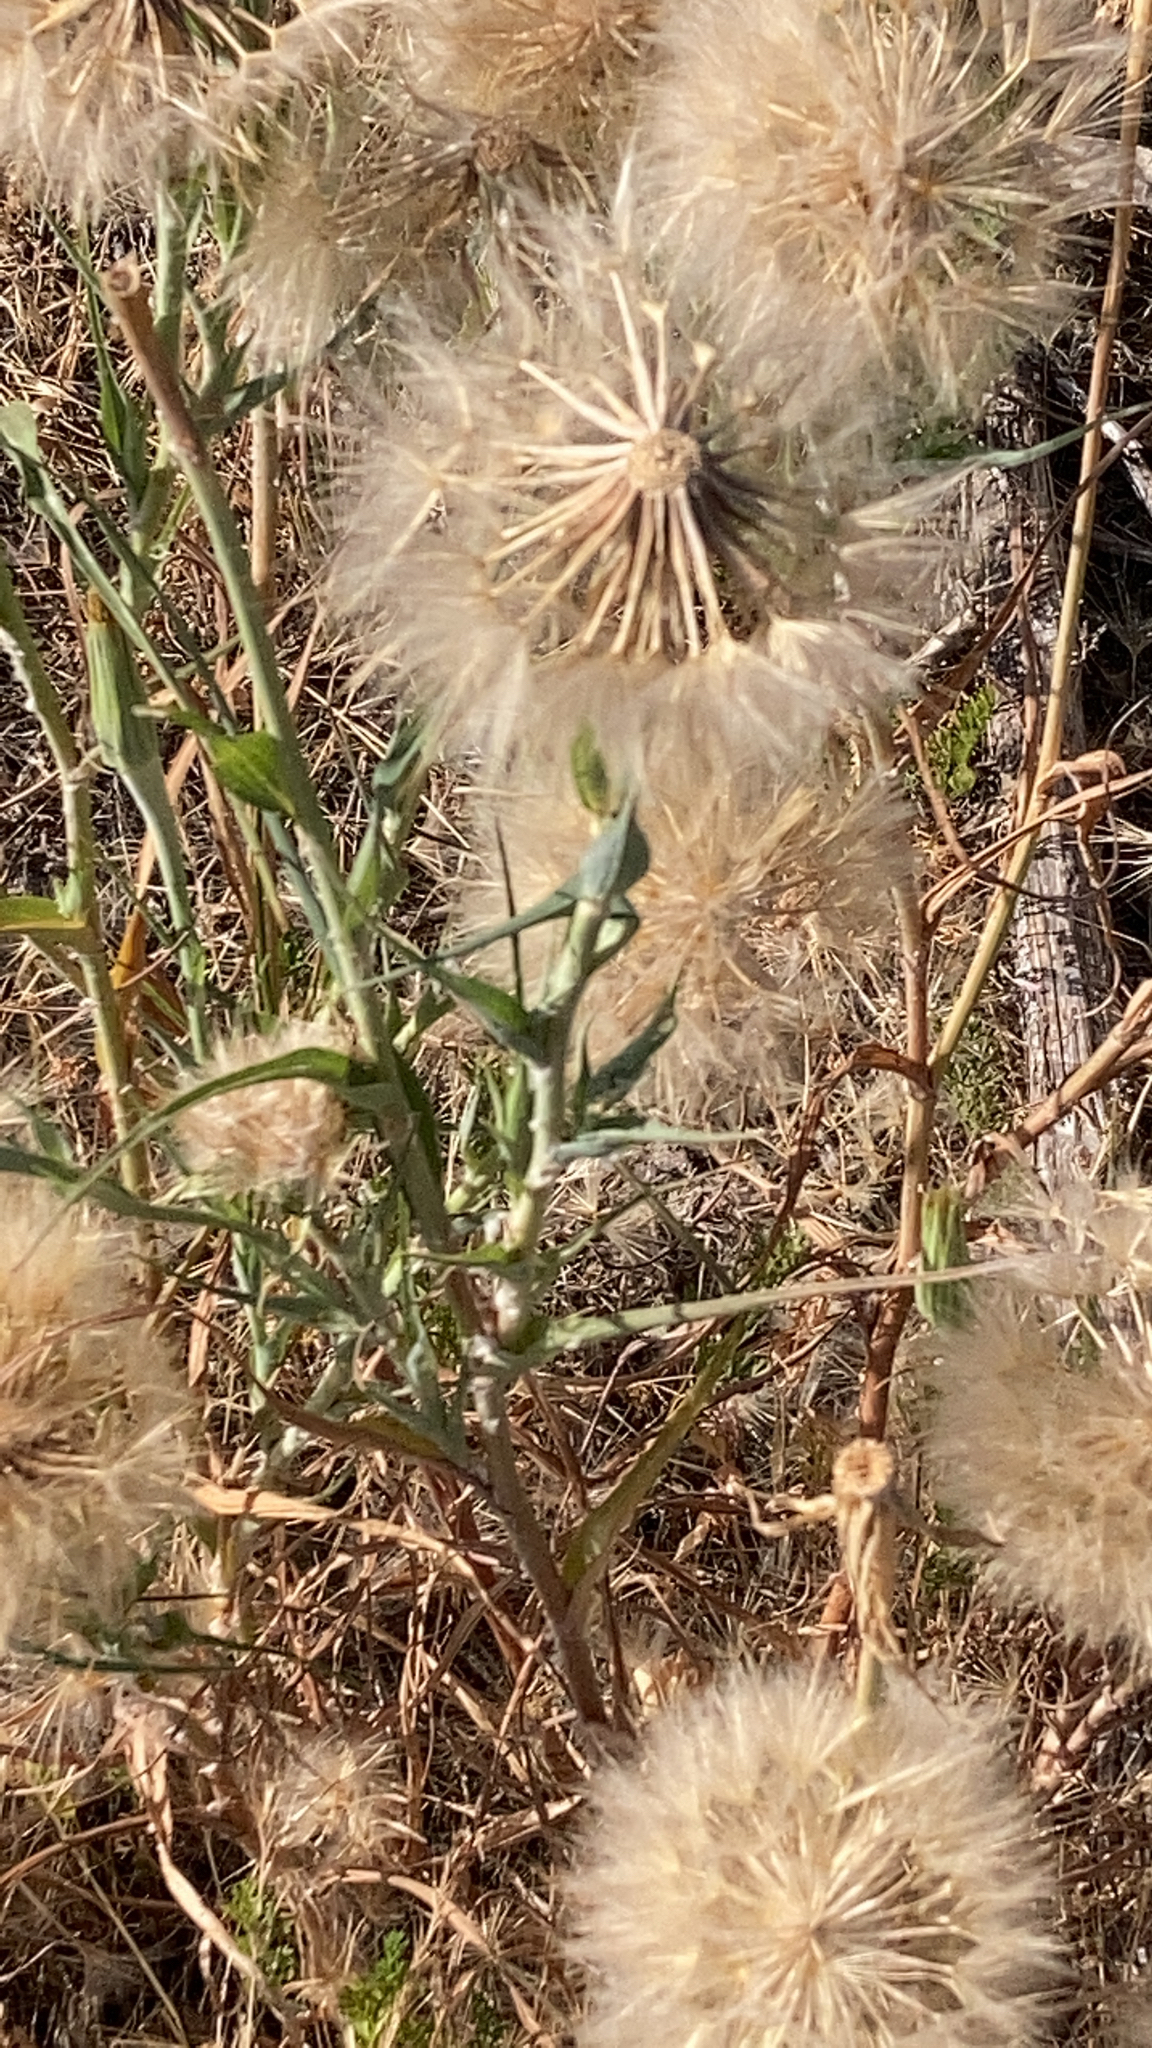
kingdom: Plantae
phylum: Tracheophyta
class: Magnoliopsida
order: Asterales
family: Asteraceae
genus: Tragopogon
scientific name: Tragopogon dubius
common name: Yellow salsify
